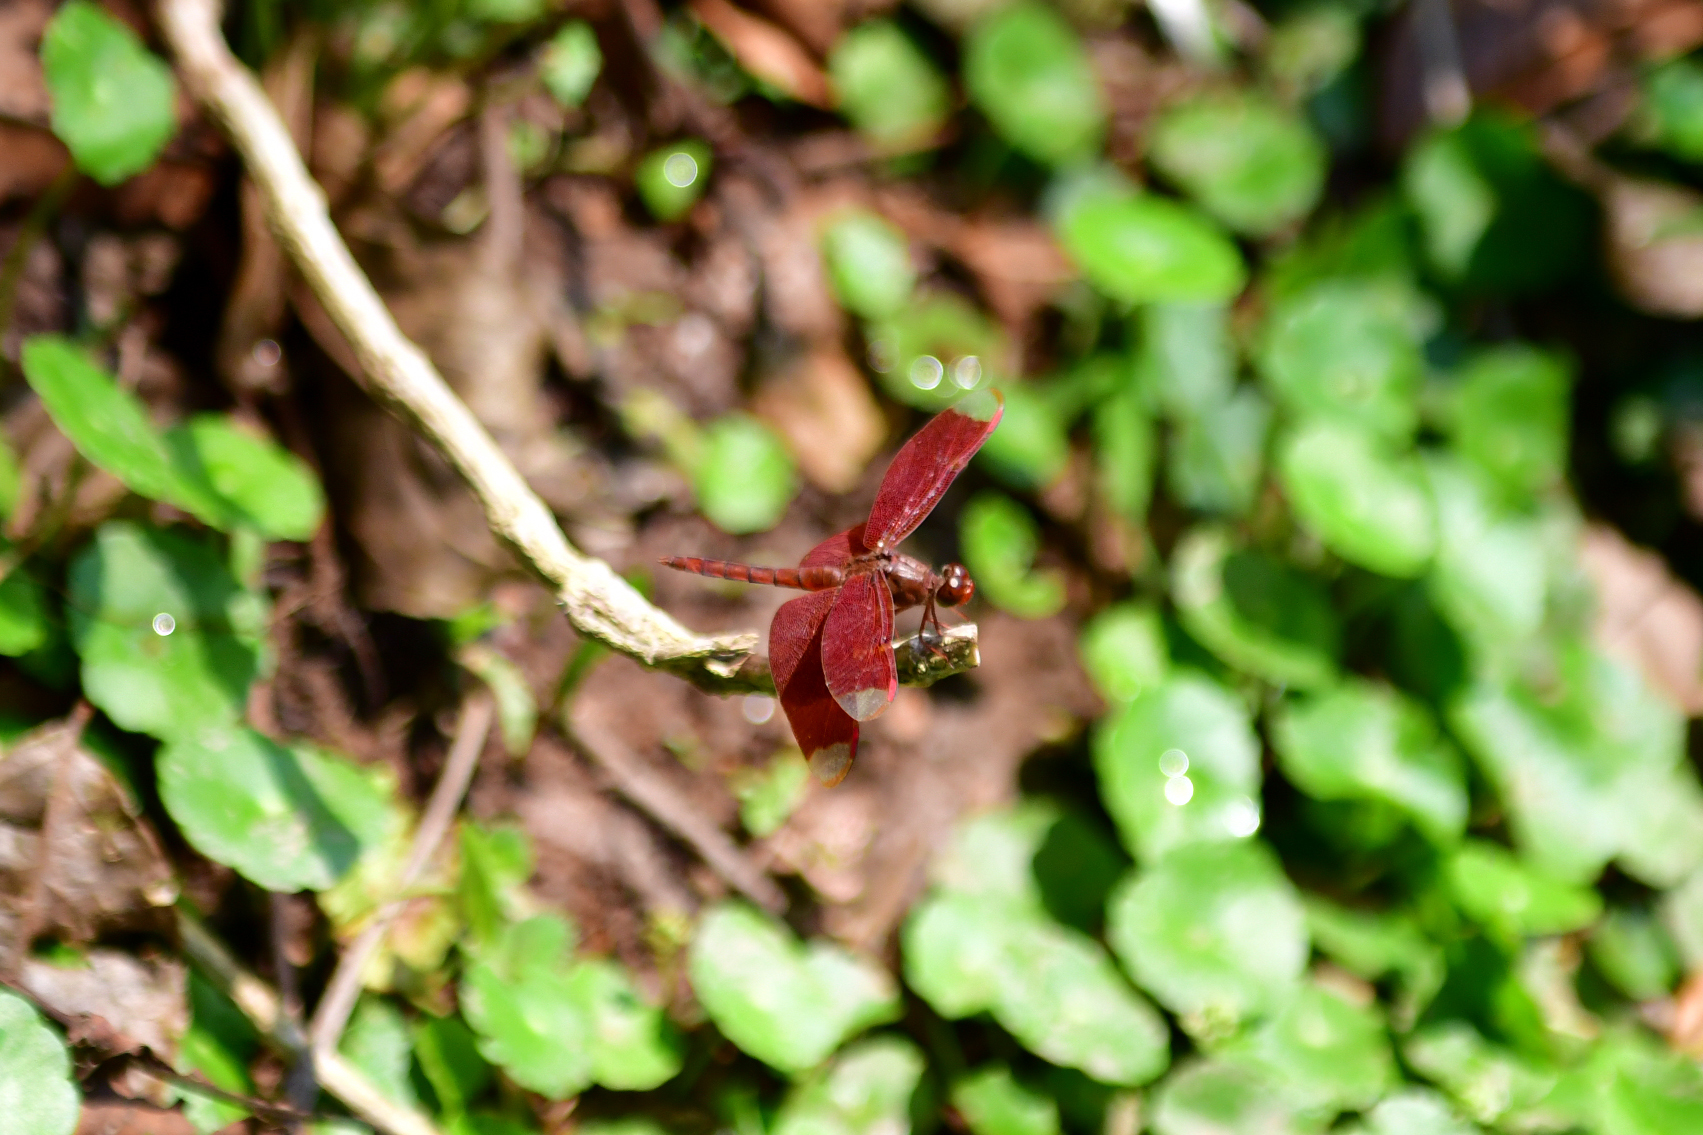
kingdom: Animalia
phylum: Arthropoda
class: Insecta
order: Odonata
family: Libellulidae
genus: Neurothemis
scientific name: Neurothemis fulvia
